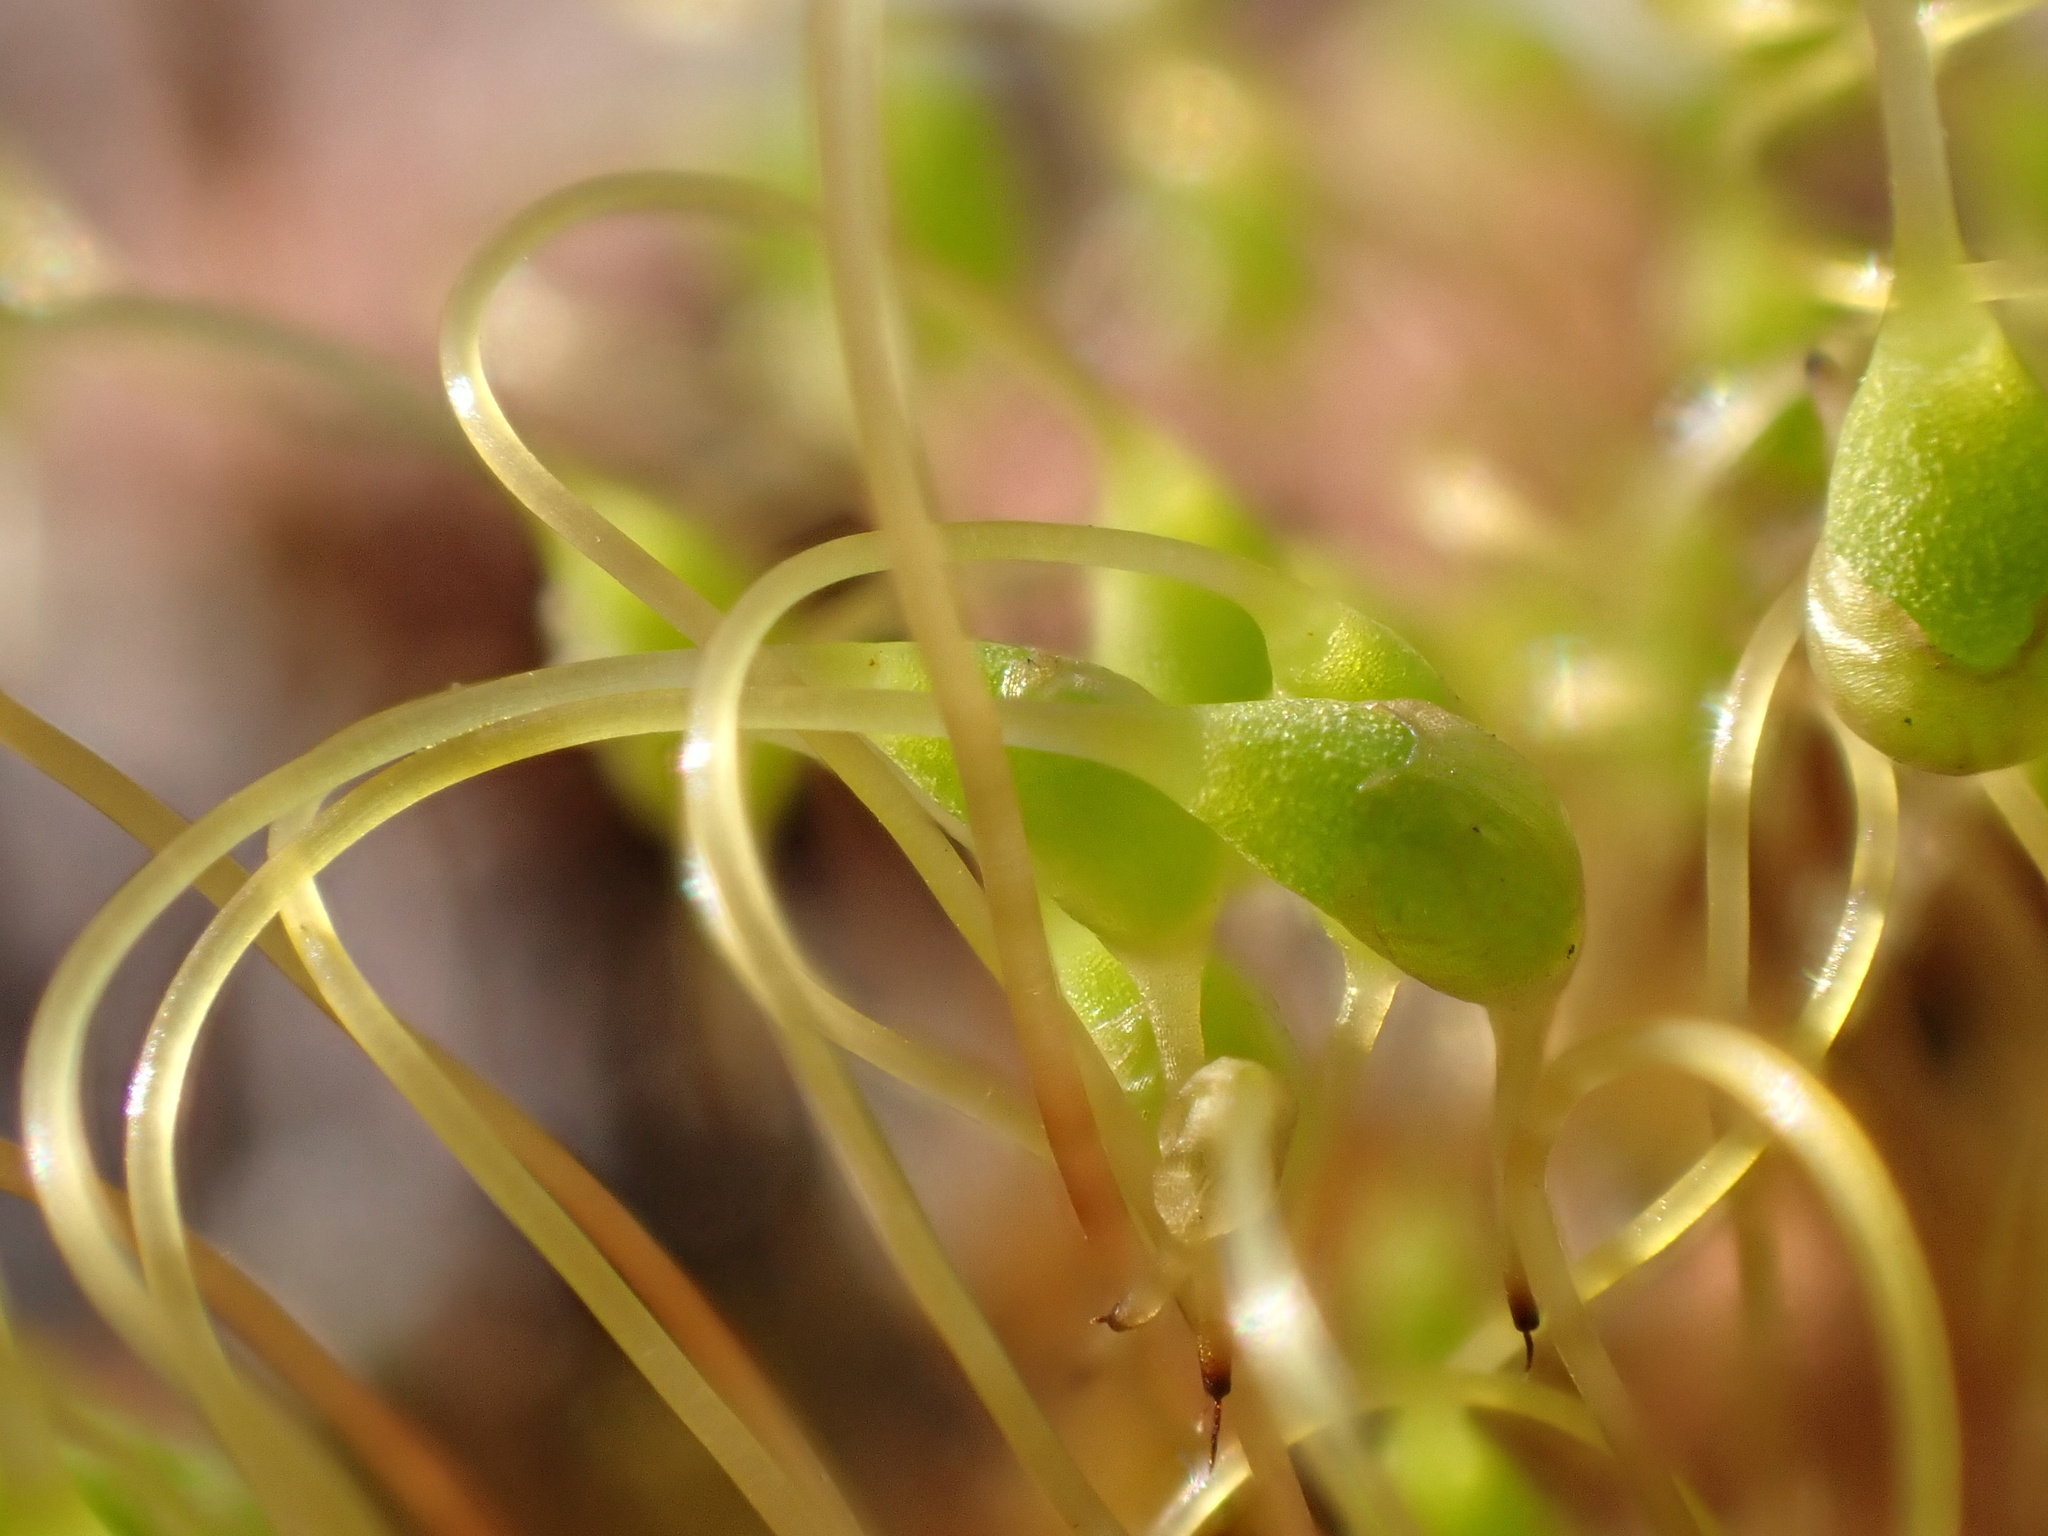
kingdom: Plantae
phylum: Bryophyta
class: Bryopsida
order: Funariales
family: Funariaceae
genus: Funaria
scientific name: Funaria hygrometrica
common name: Common cord moss
